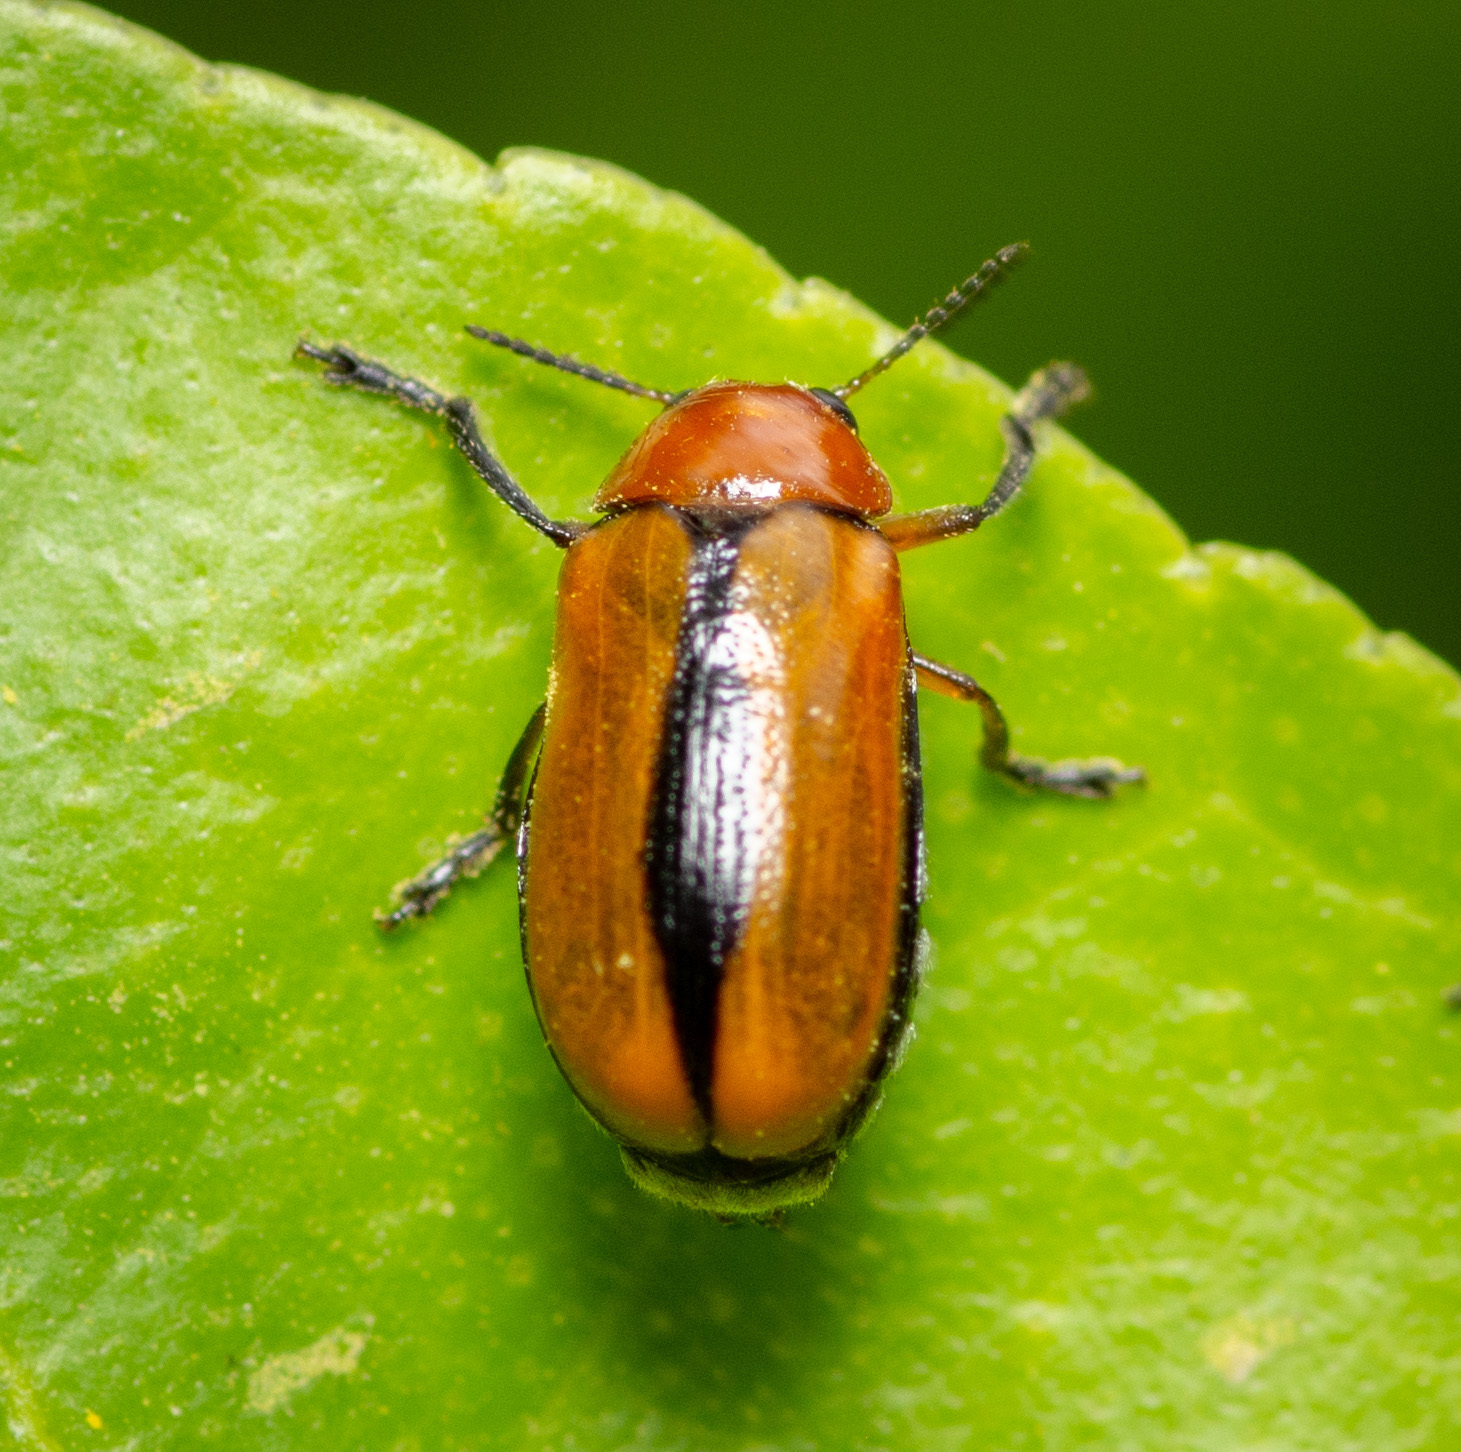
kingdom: Animalia
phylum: Arthropoda
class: Insecta
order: Coleoptera
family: Chrysomelidae
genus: Anomoea
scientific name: Anomoea laticlavia
